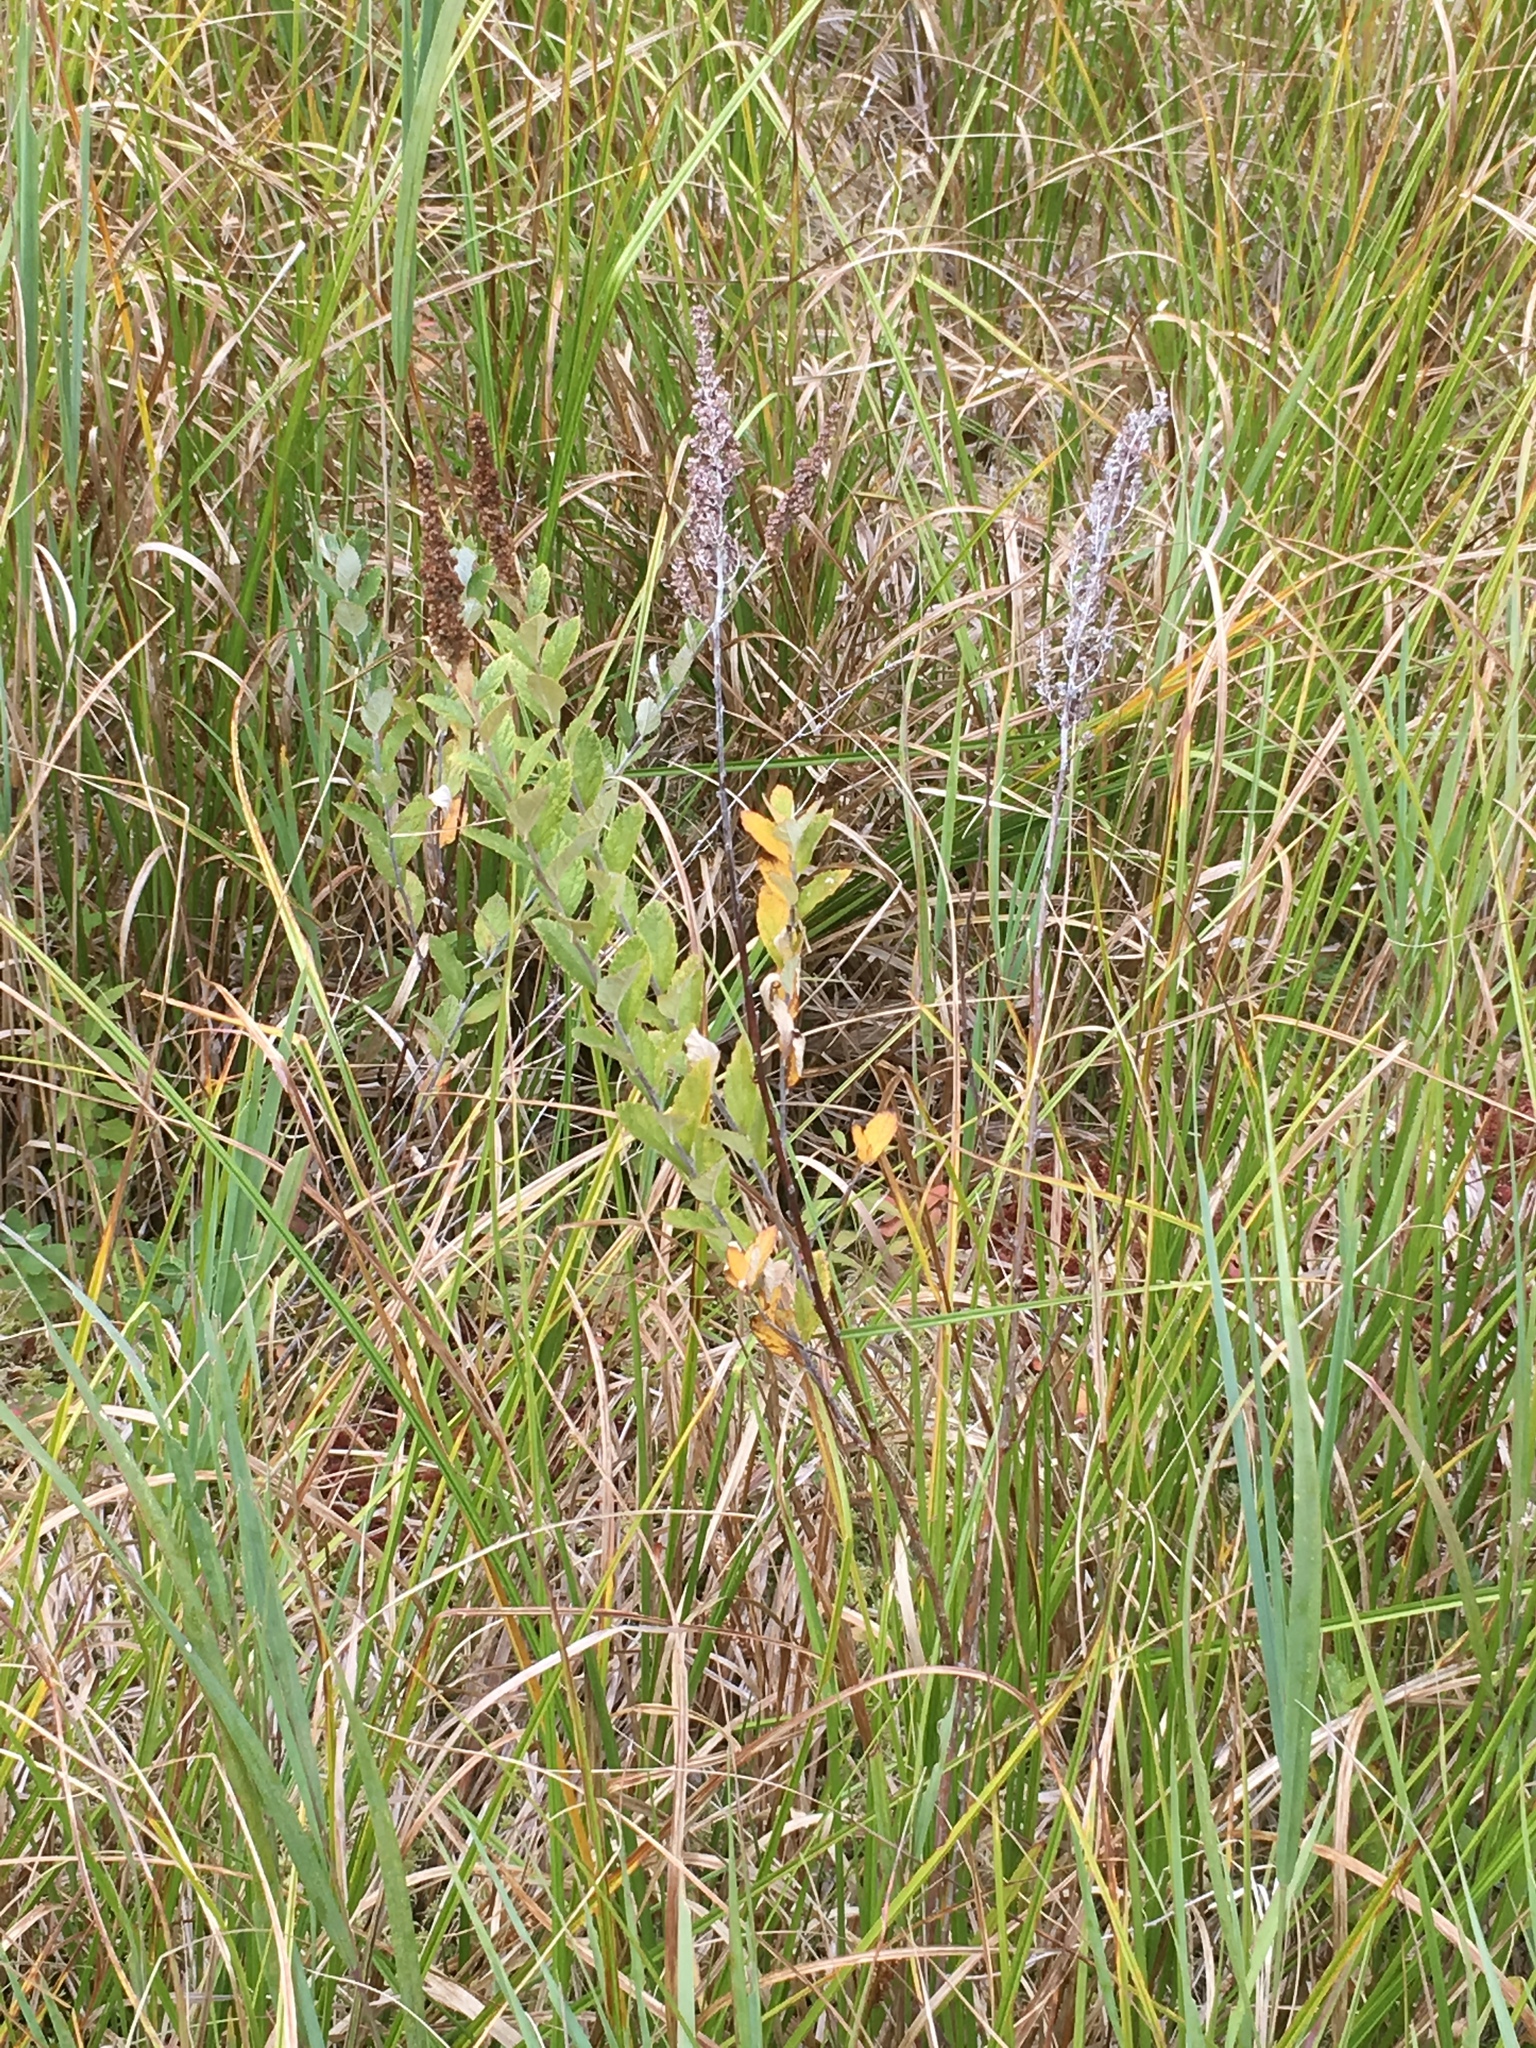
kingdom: Plantae
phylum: Tracheophyta
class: Magnoliopsida
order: Rosales
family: Rosaceae
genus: Spiraea
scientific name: Spiraea tomentosa
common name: Hardhack
